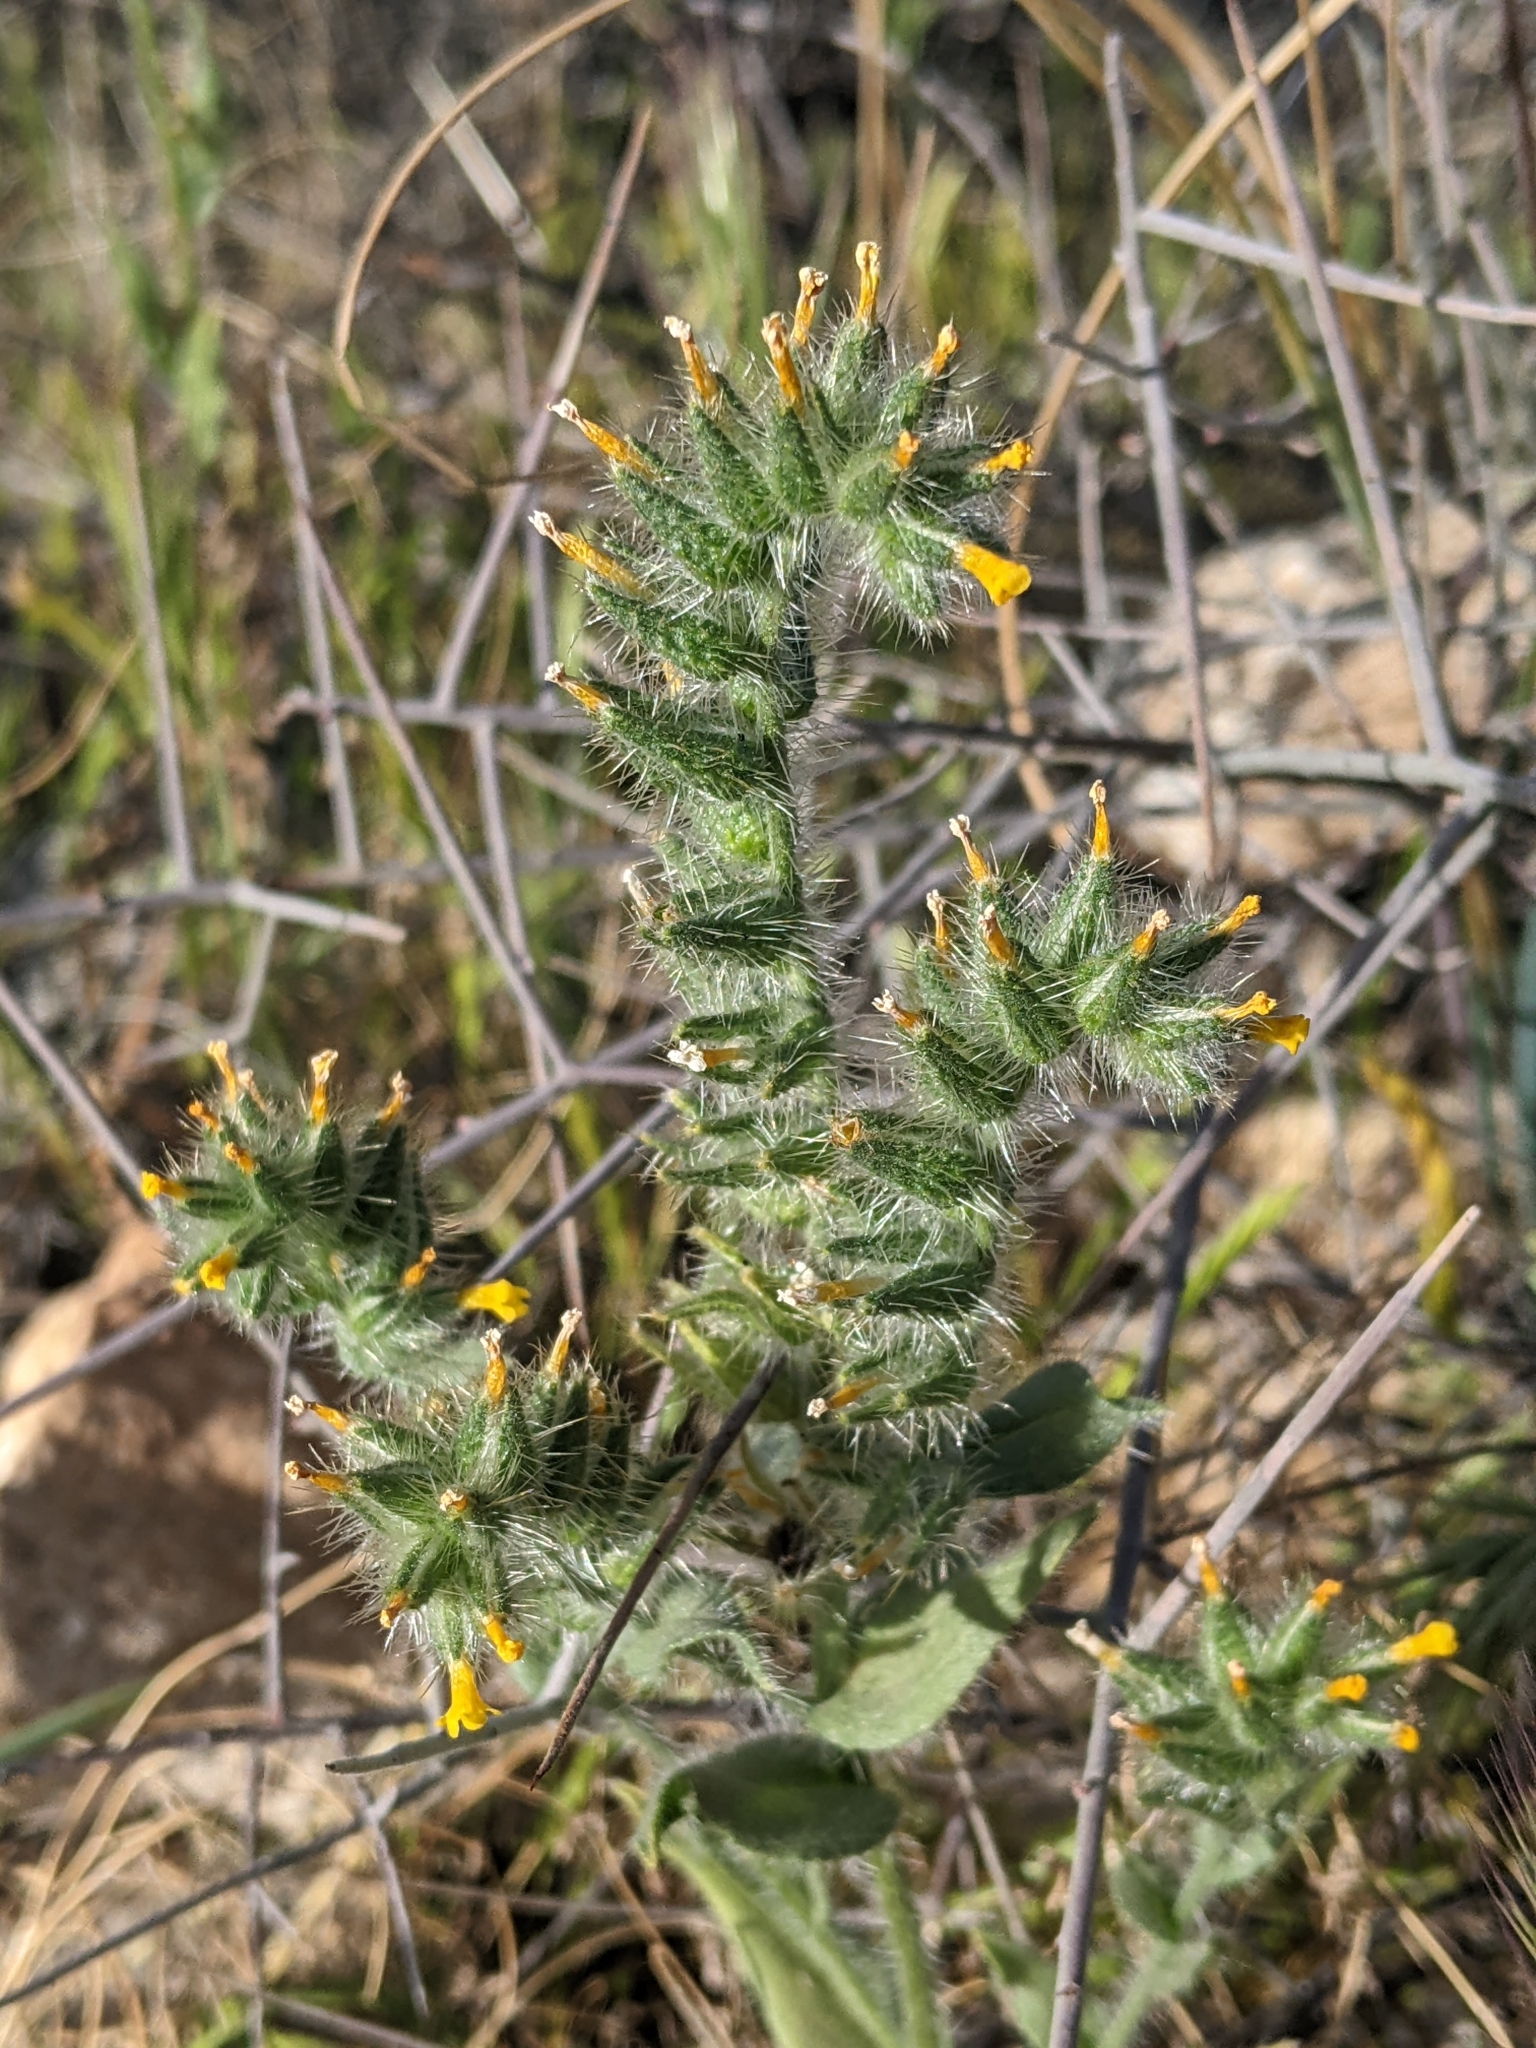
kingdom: Plantae
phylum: Tracheophyta
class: Magnoliopsida
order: Boraginales
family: Boraginaceae
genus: Amsinckia
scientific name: Amsinckia tessellata
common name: Tessellate fiddleneck
